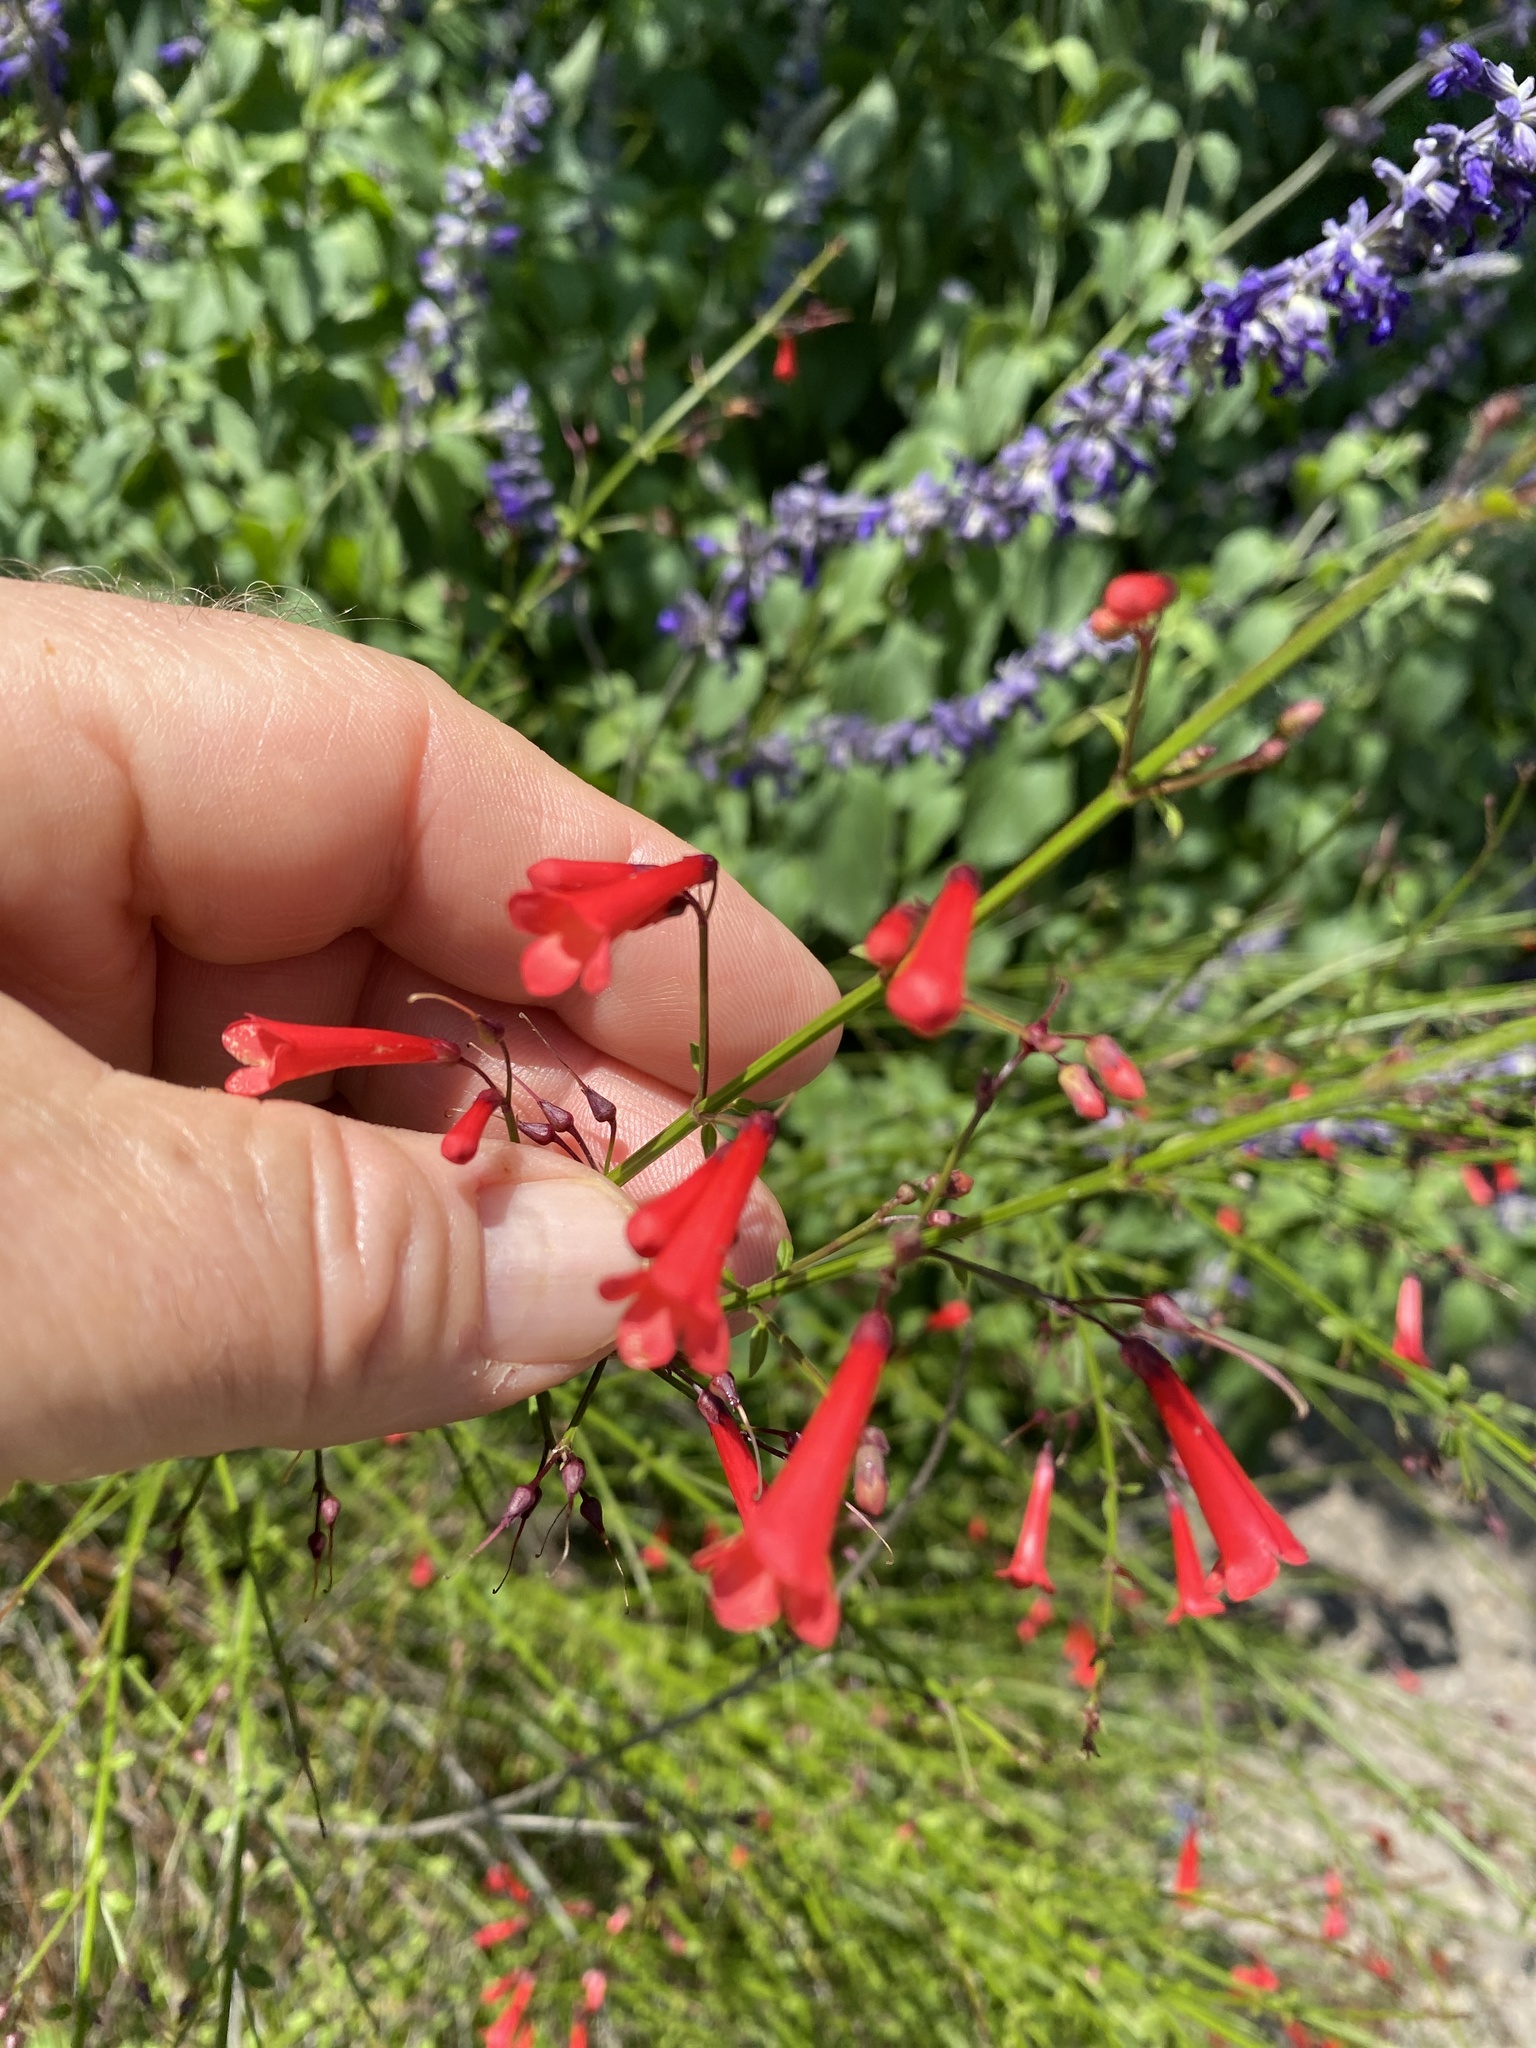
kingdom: Plantae
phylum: Tracheophyta
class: Magnoliopsida
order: Lamiales
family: Plantaginaceae
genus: Russelia
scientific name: Russelia equisetiformis
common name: Fountainbush
